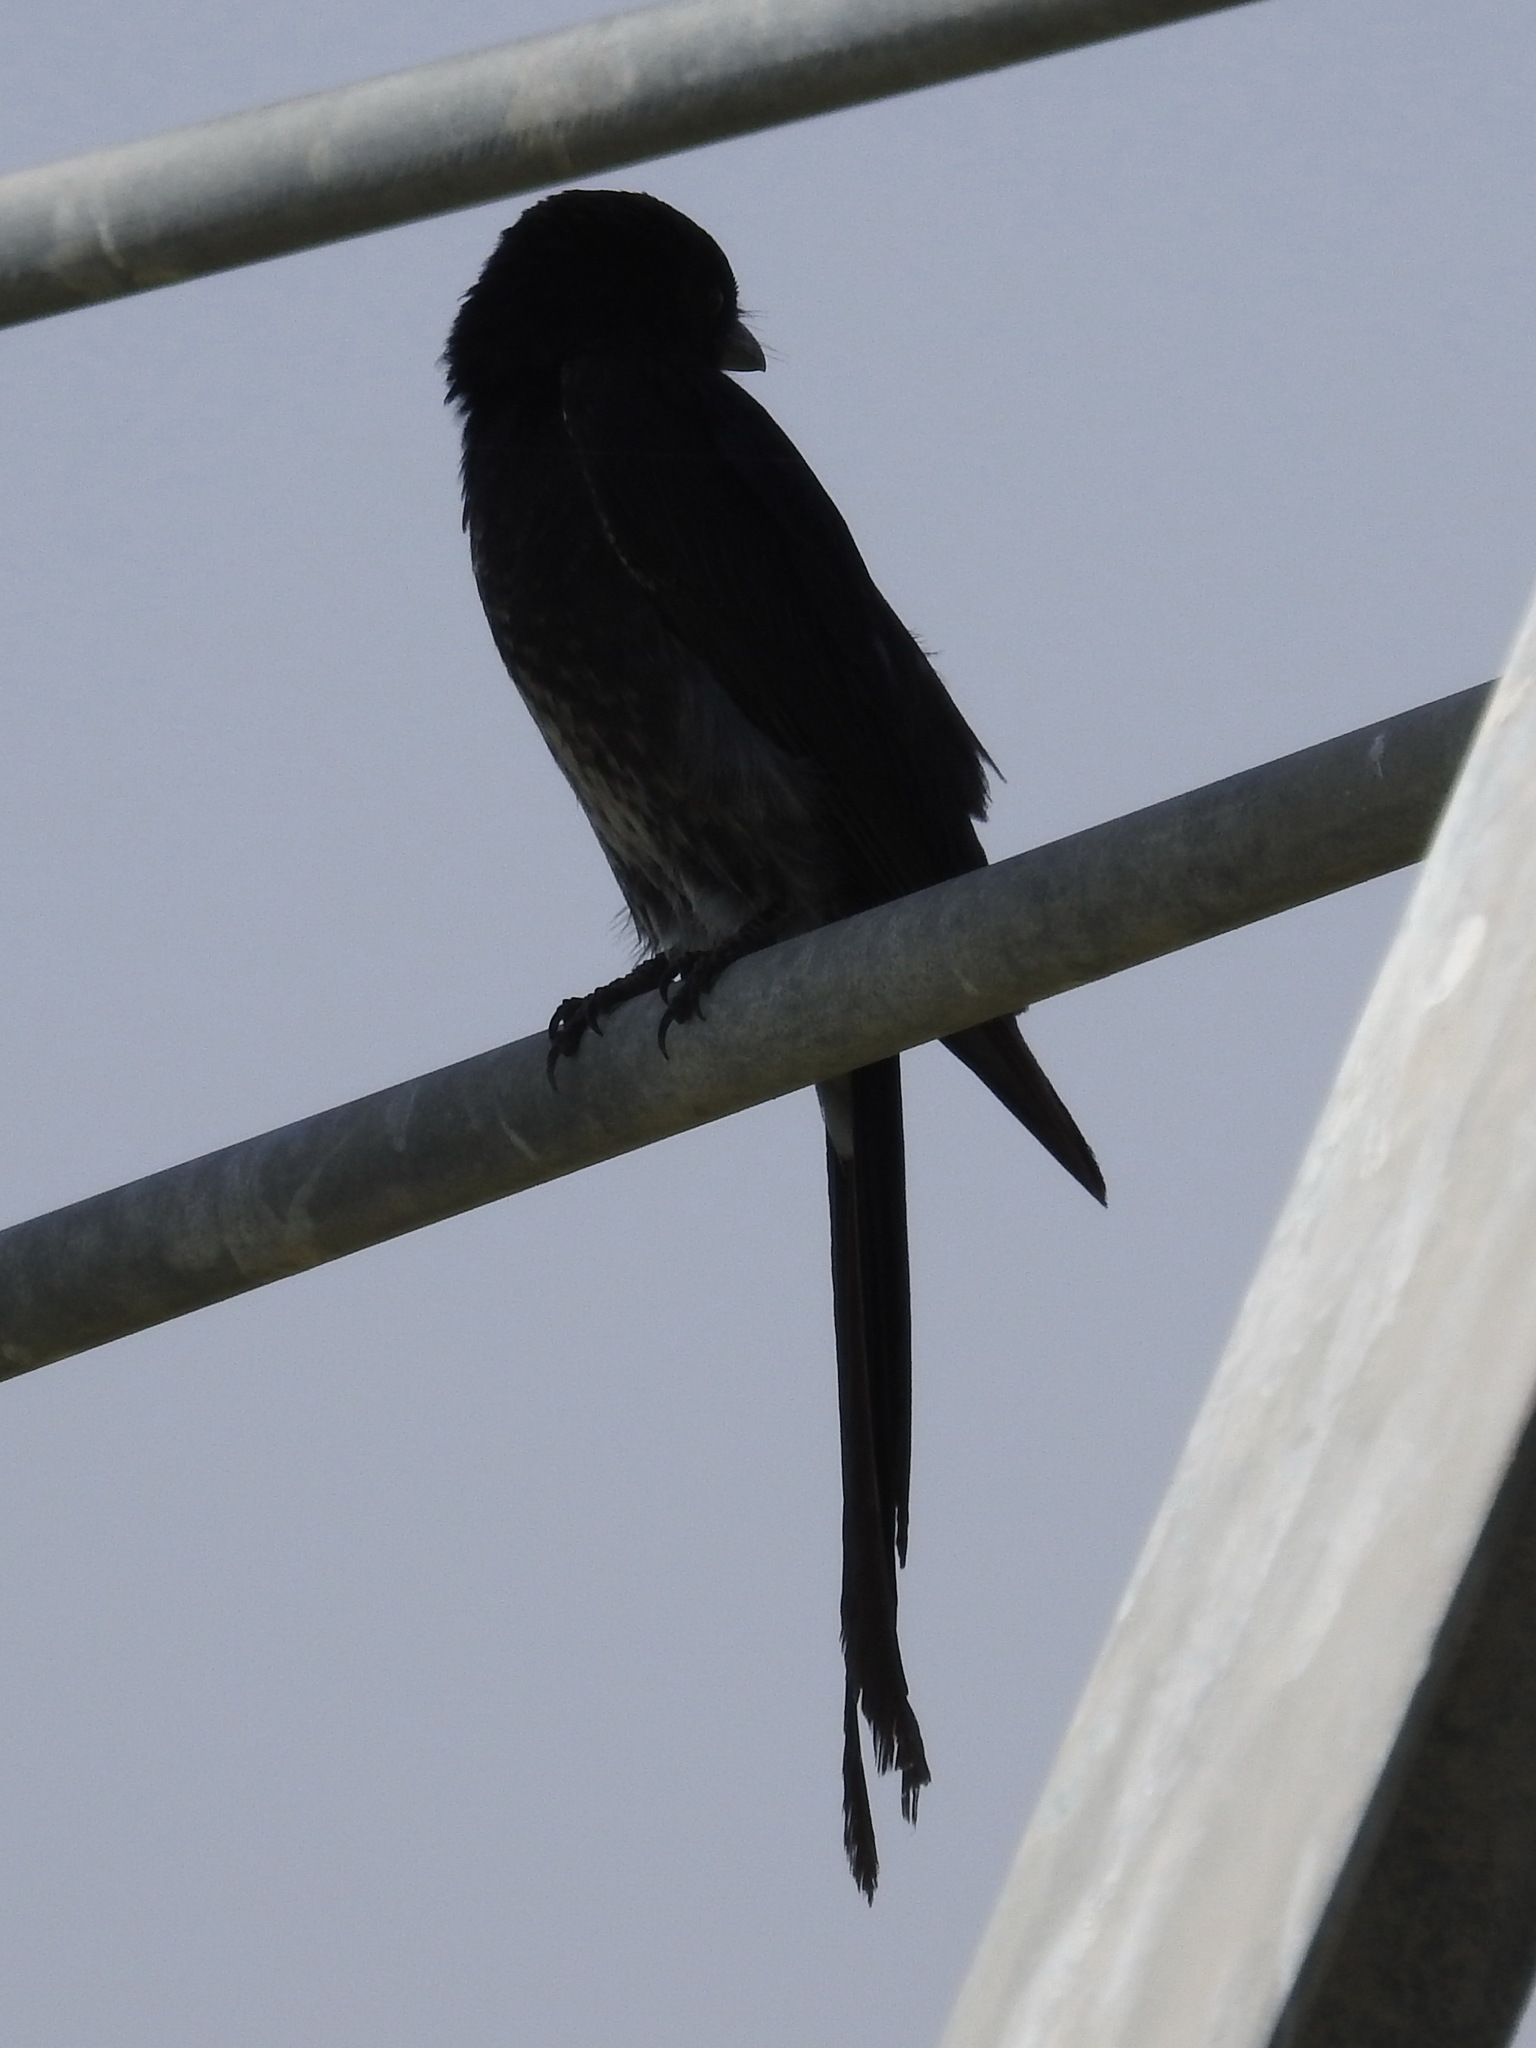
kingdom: Animalia
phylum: Chordata
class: Aves
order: Passeriformes
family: Dicruridae
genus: Dicrurus
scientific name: Dicrurus macrocercus
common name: Black drongo
